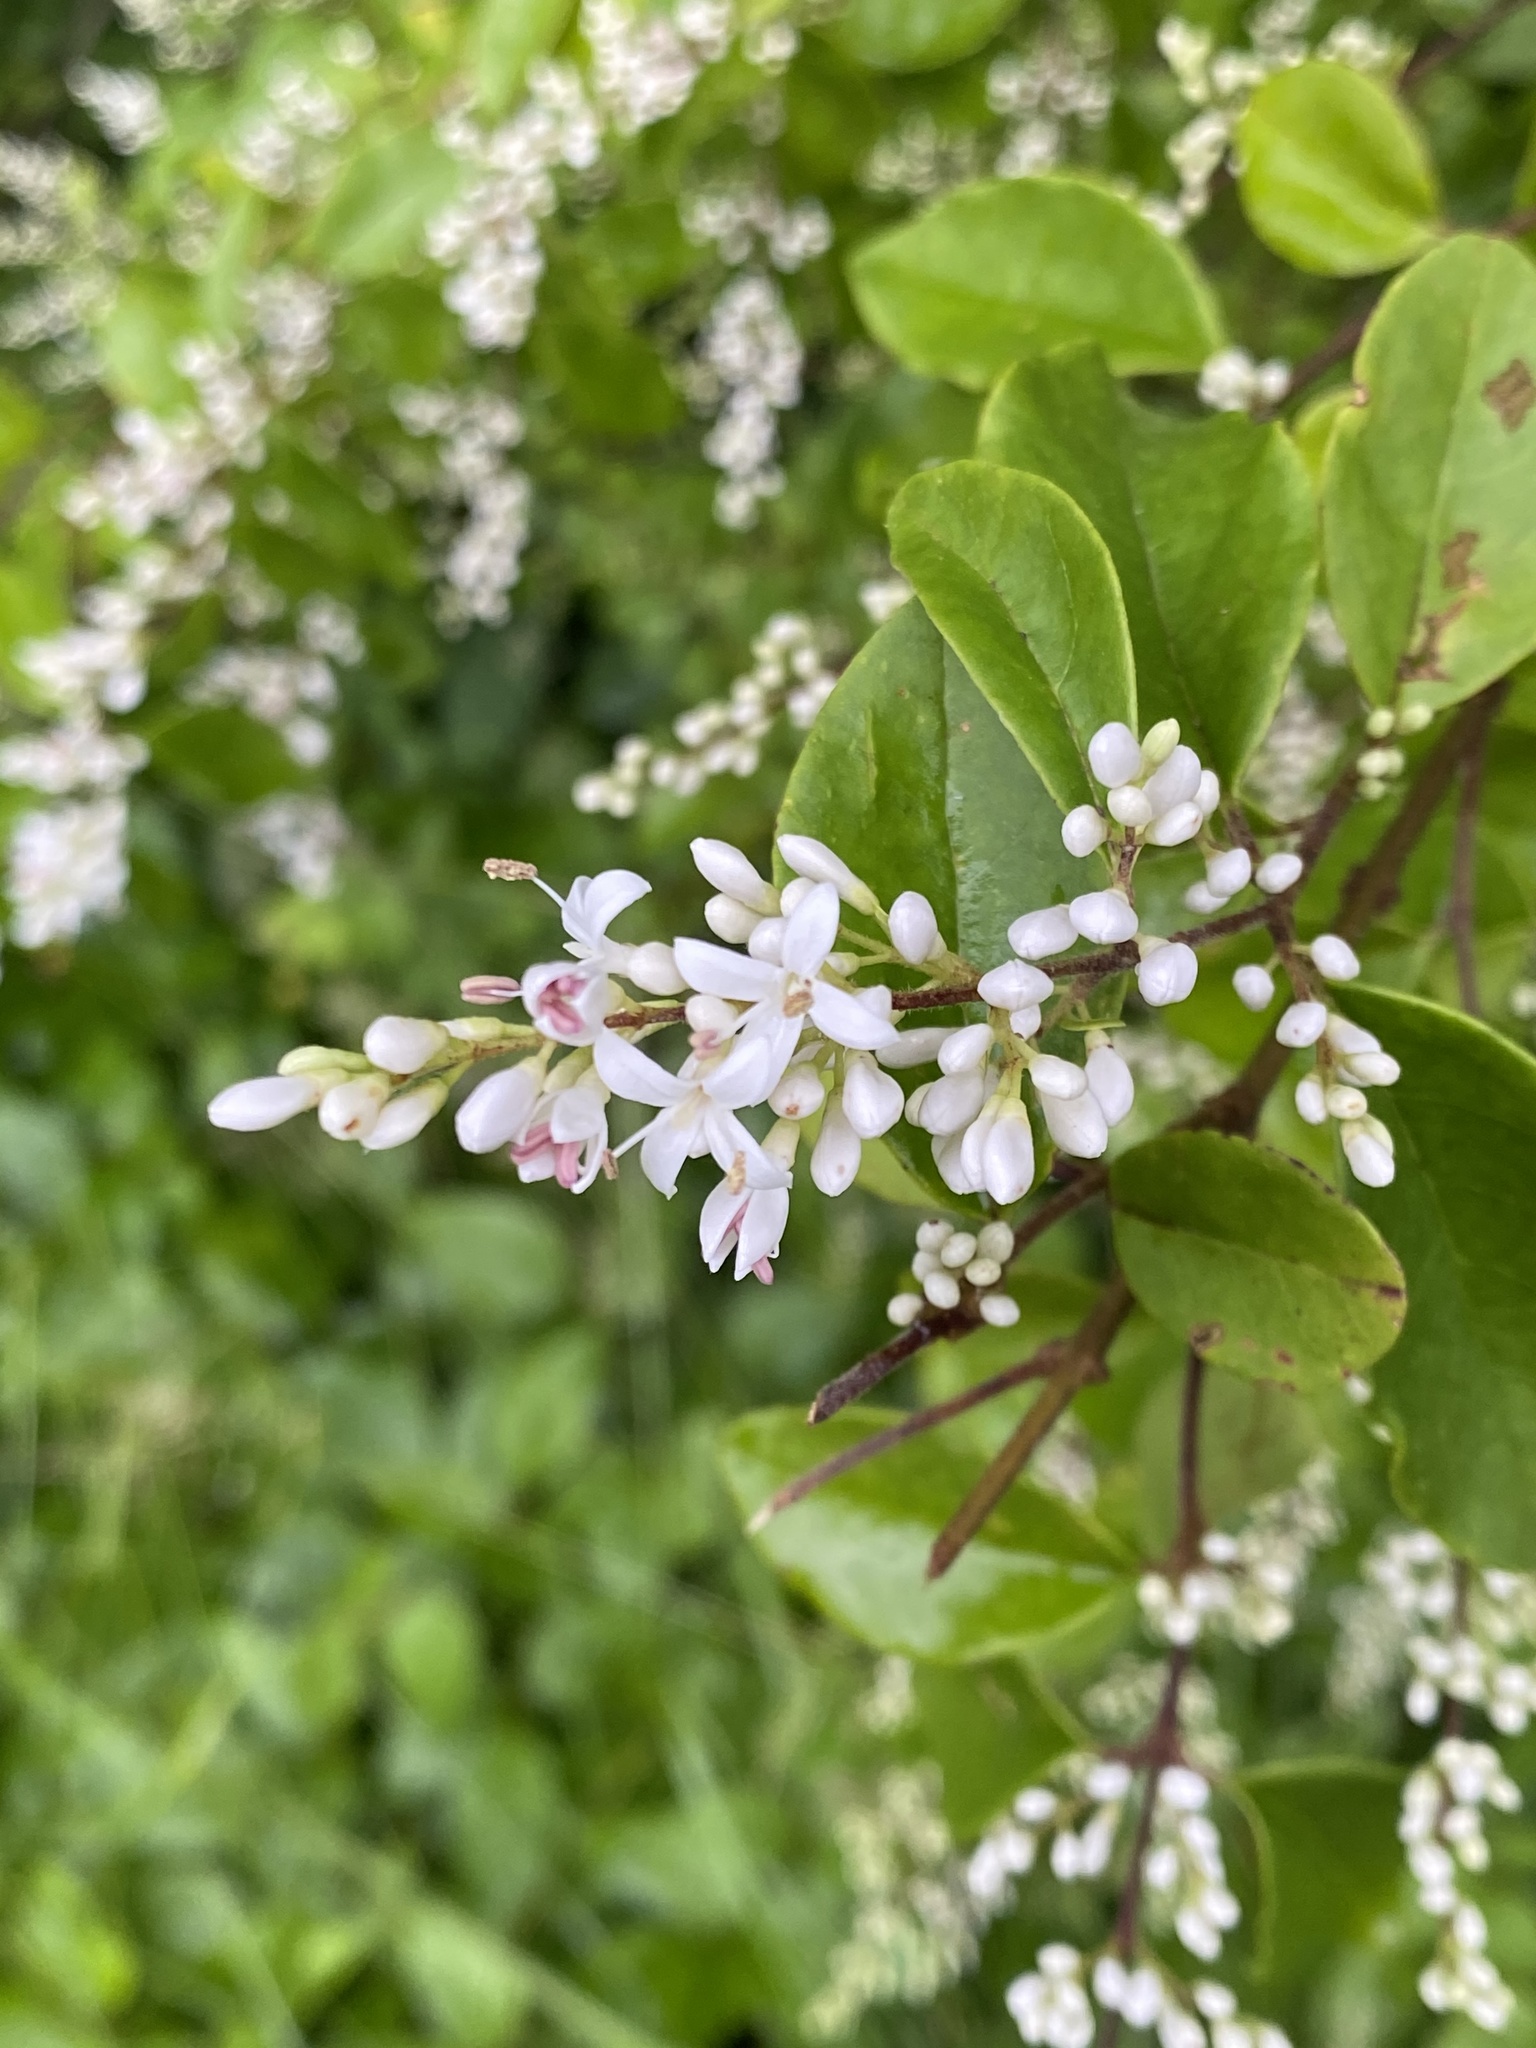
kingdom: Plantae
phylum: Tracheophyta
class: Magnoliopsida
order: Lamiales
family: Oleaceae
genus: Ligustrum
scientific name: Ligustrum sinense
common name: Chinese privet
